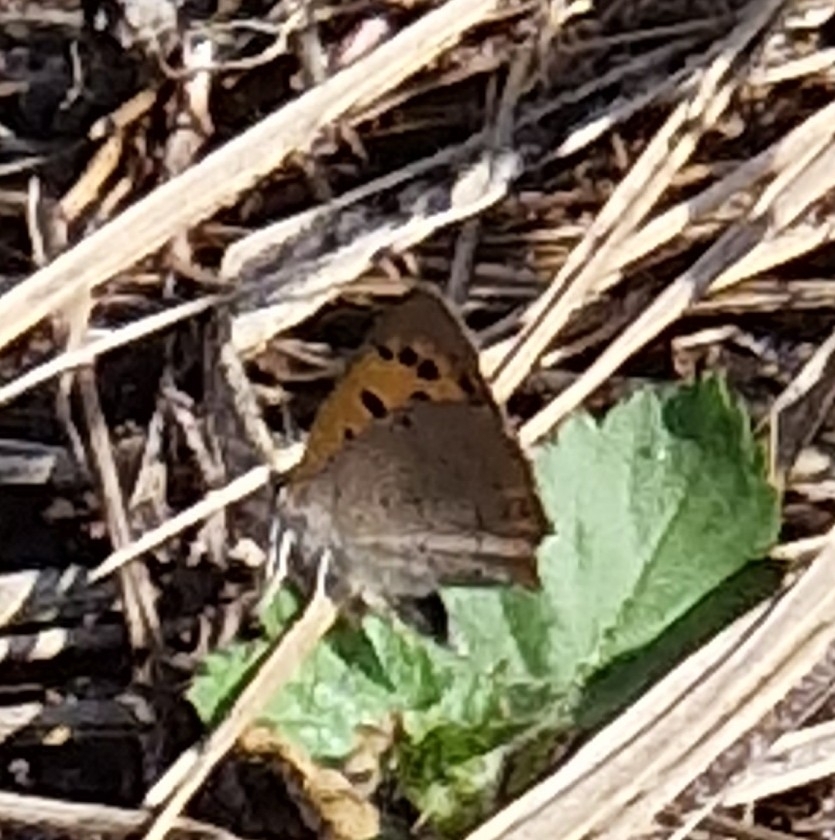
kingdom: Animalia
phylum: Arthropoda
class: Insecta
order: Lepidoptera
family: Lycaenidae
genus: Lycaena
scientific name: Lycaena phlaeas
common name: Small copper
